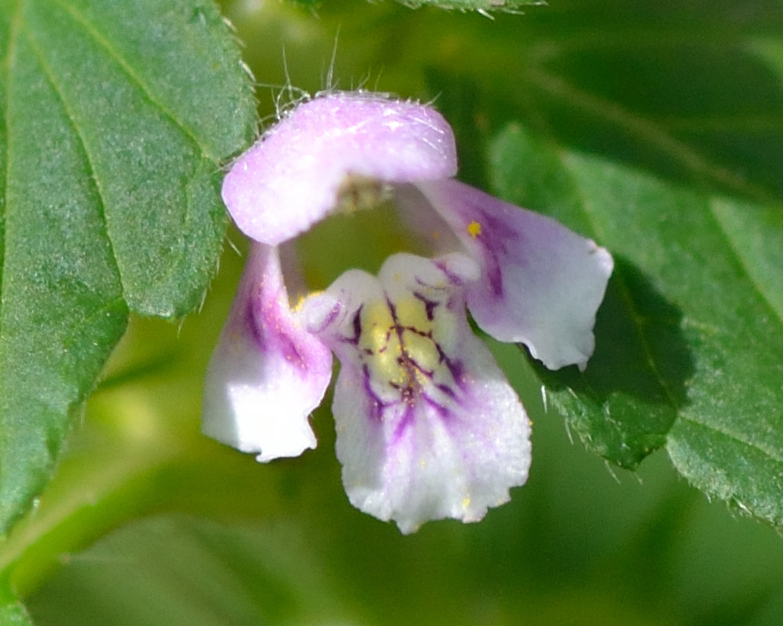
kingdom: Plantae
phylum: Tracheophyta
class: Magnoliopsida
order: Lamiales
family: Lamiaceae
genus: Galeopsis
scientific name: Galeopsis tetrahit
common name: Common hemp-nettle
